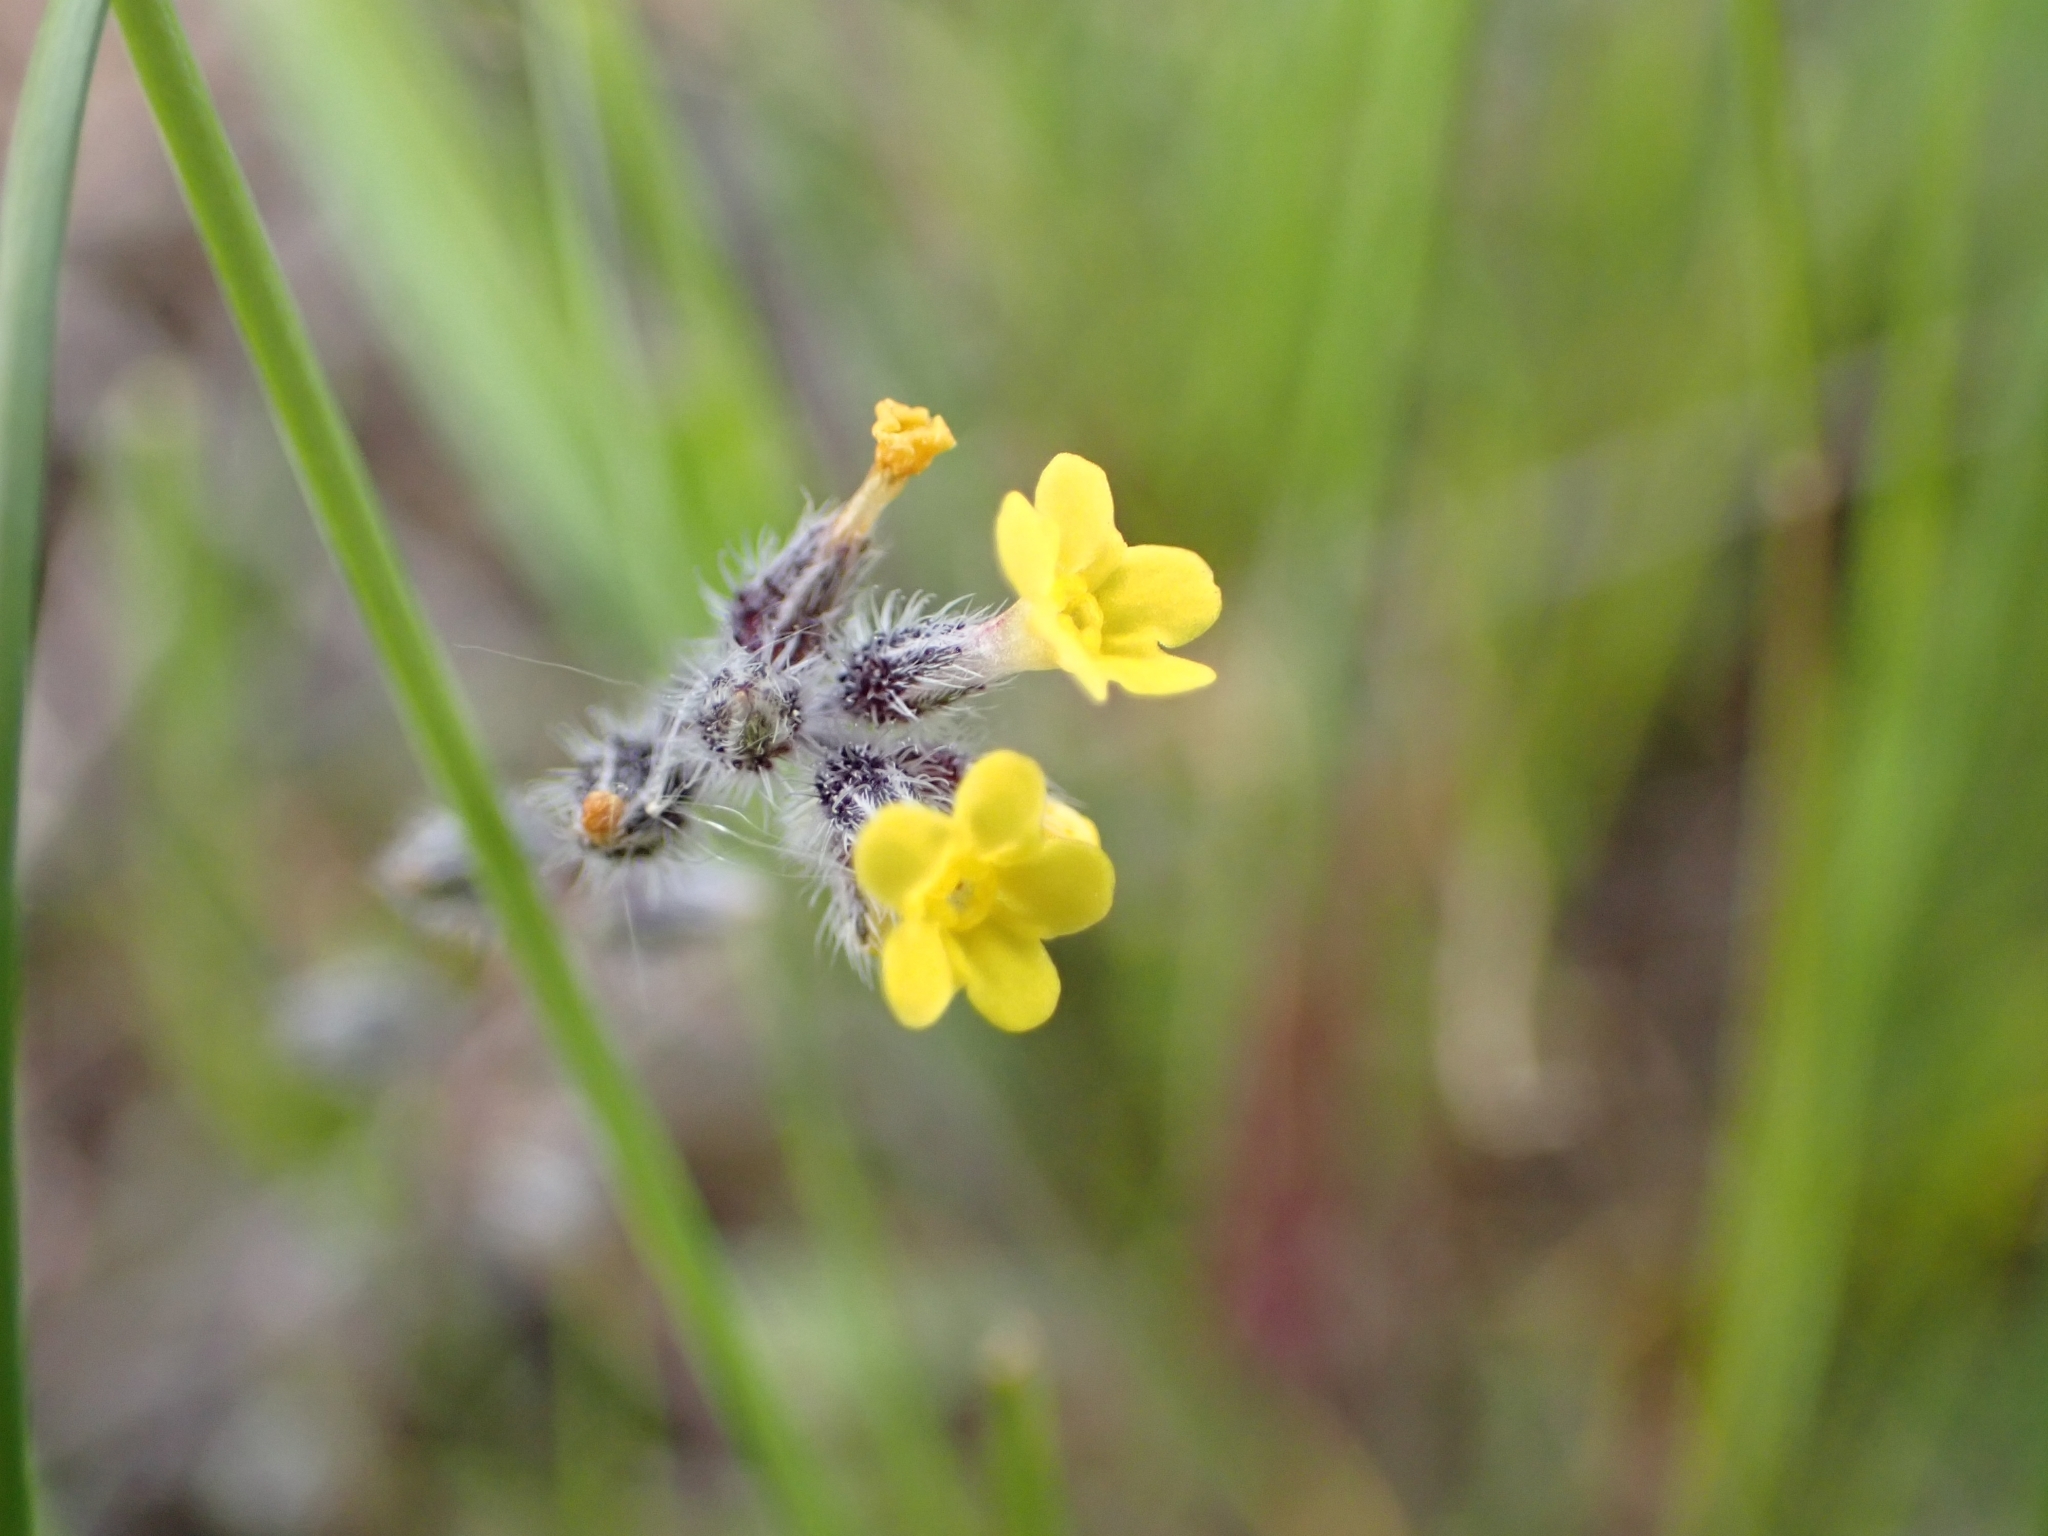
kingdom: Plantae
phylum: Tracheophyta
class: Magnoliopsida
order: Boraginales
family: Boraginaceae
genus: Myosotis
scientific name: Myosotis persoonii
